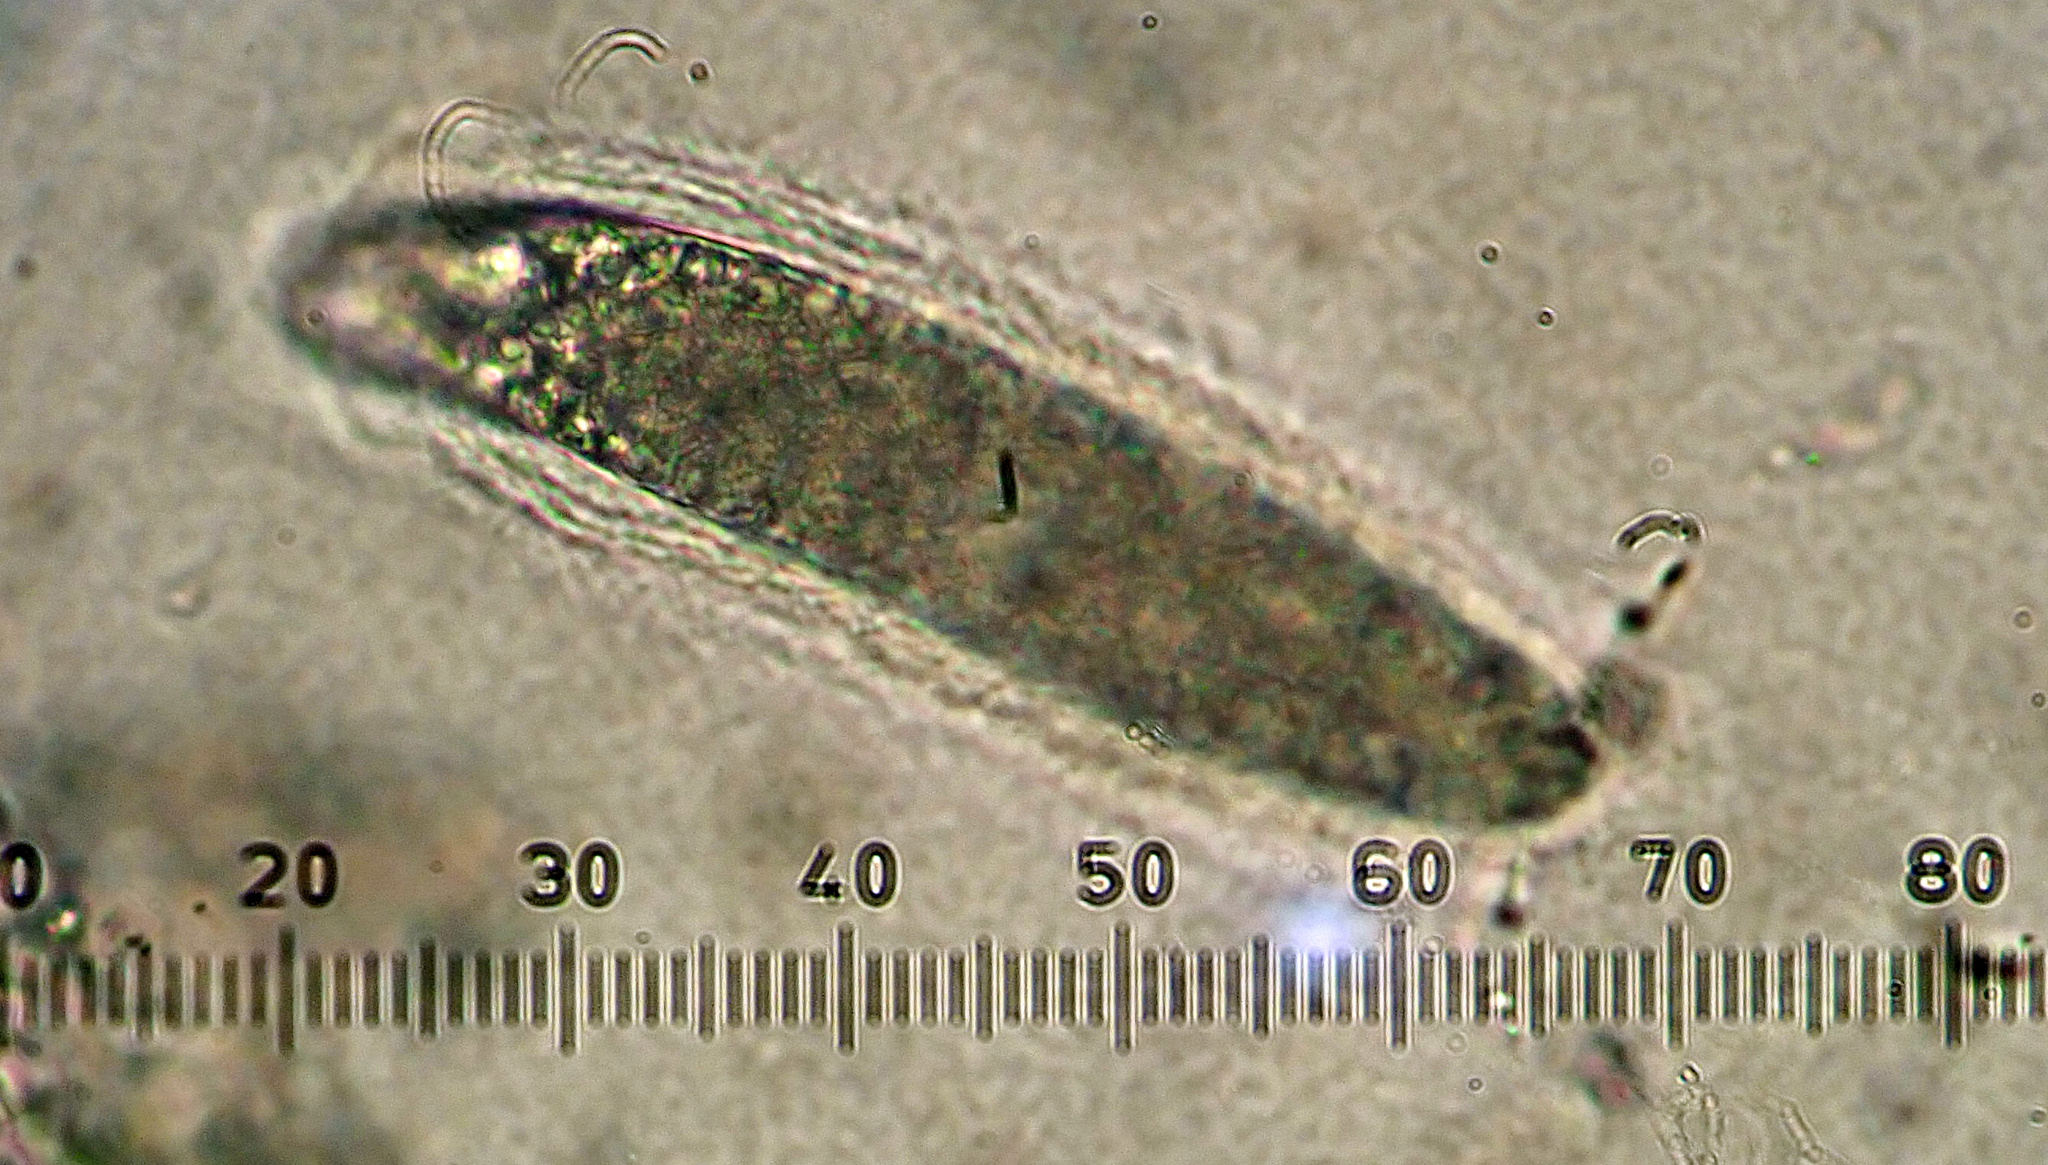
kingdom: Fungi
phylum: Ascomycota
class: Lecanoromycetes
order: Pertusariales
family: Pertusariaceae
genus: Pertusaria
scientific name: Pertusaria thiospoda
